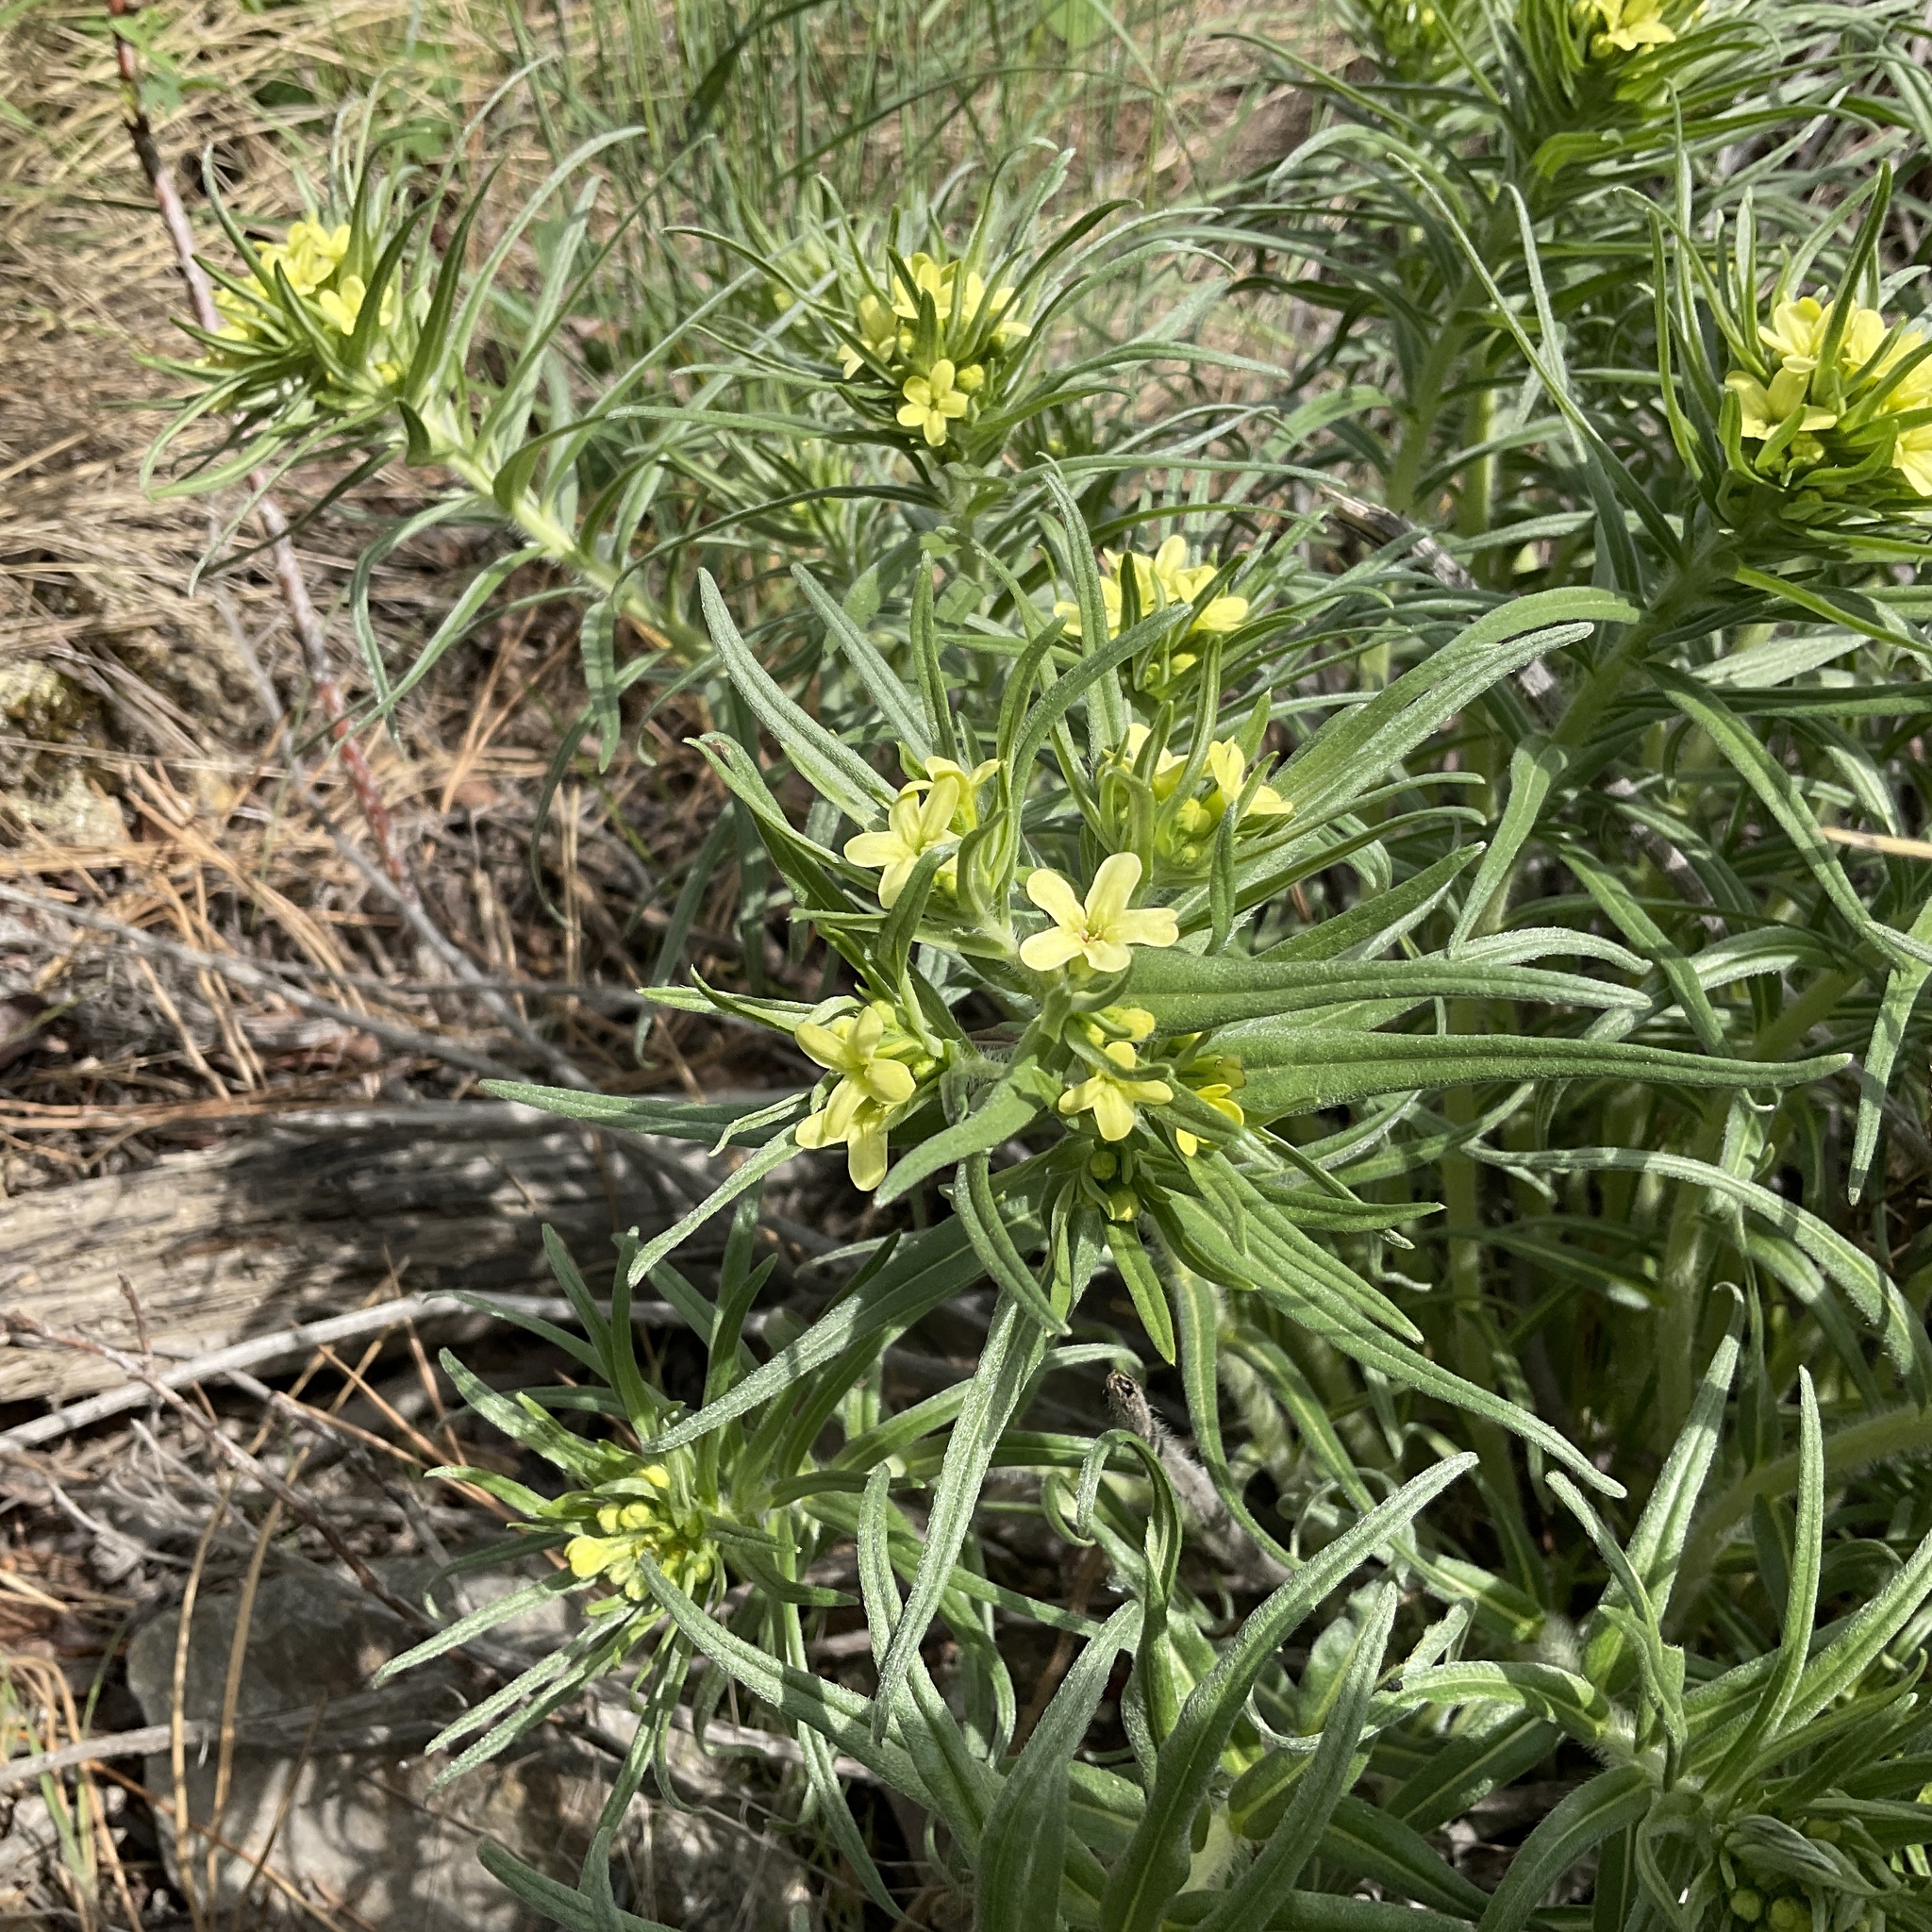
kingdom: Plantae
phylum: Tracheophyta
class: Magnoliopsida
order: Boraginales
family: Boraginaceae
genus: Lithospermum
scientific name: Lithospermum ruderale
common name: Western gromwell
